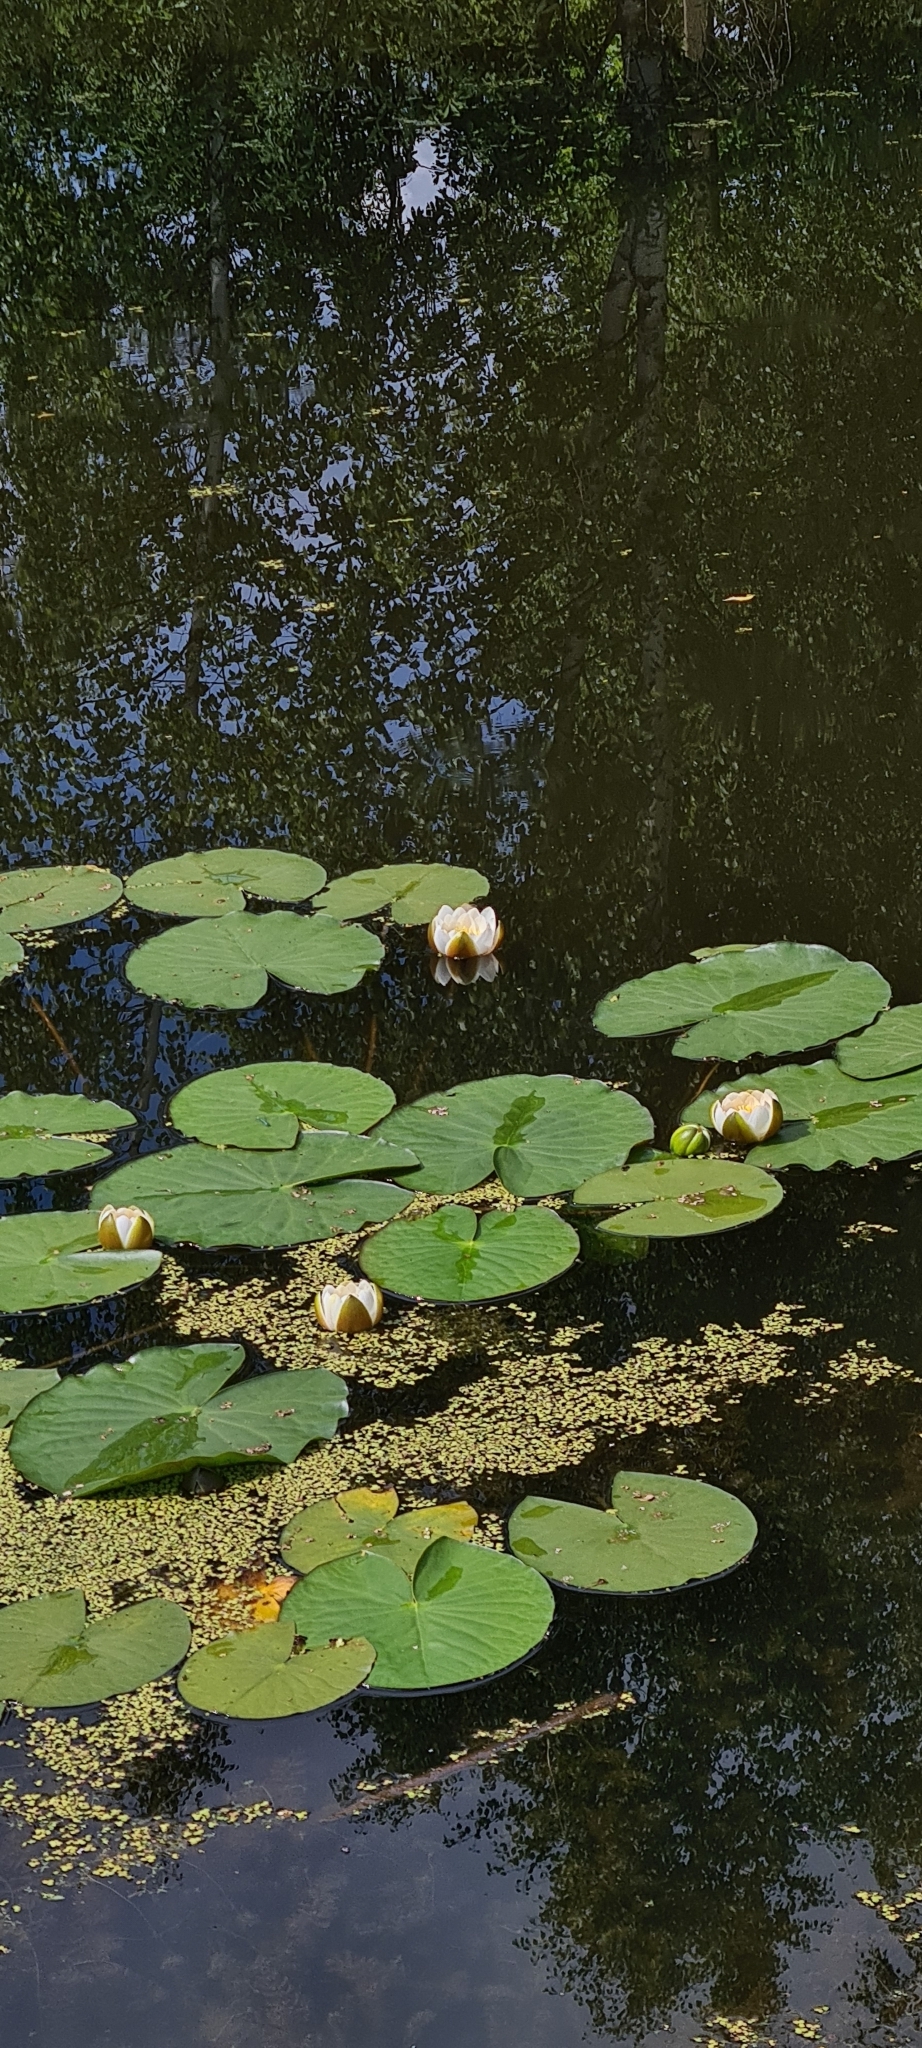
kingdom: Plantae
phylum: Tracheophyta
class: Magnoliopsida
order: Nymphaeales
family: Nymphaeaceae
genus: Nymphaea
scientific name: Nymphaea candida
